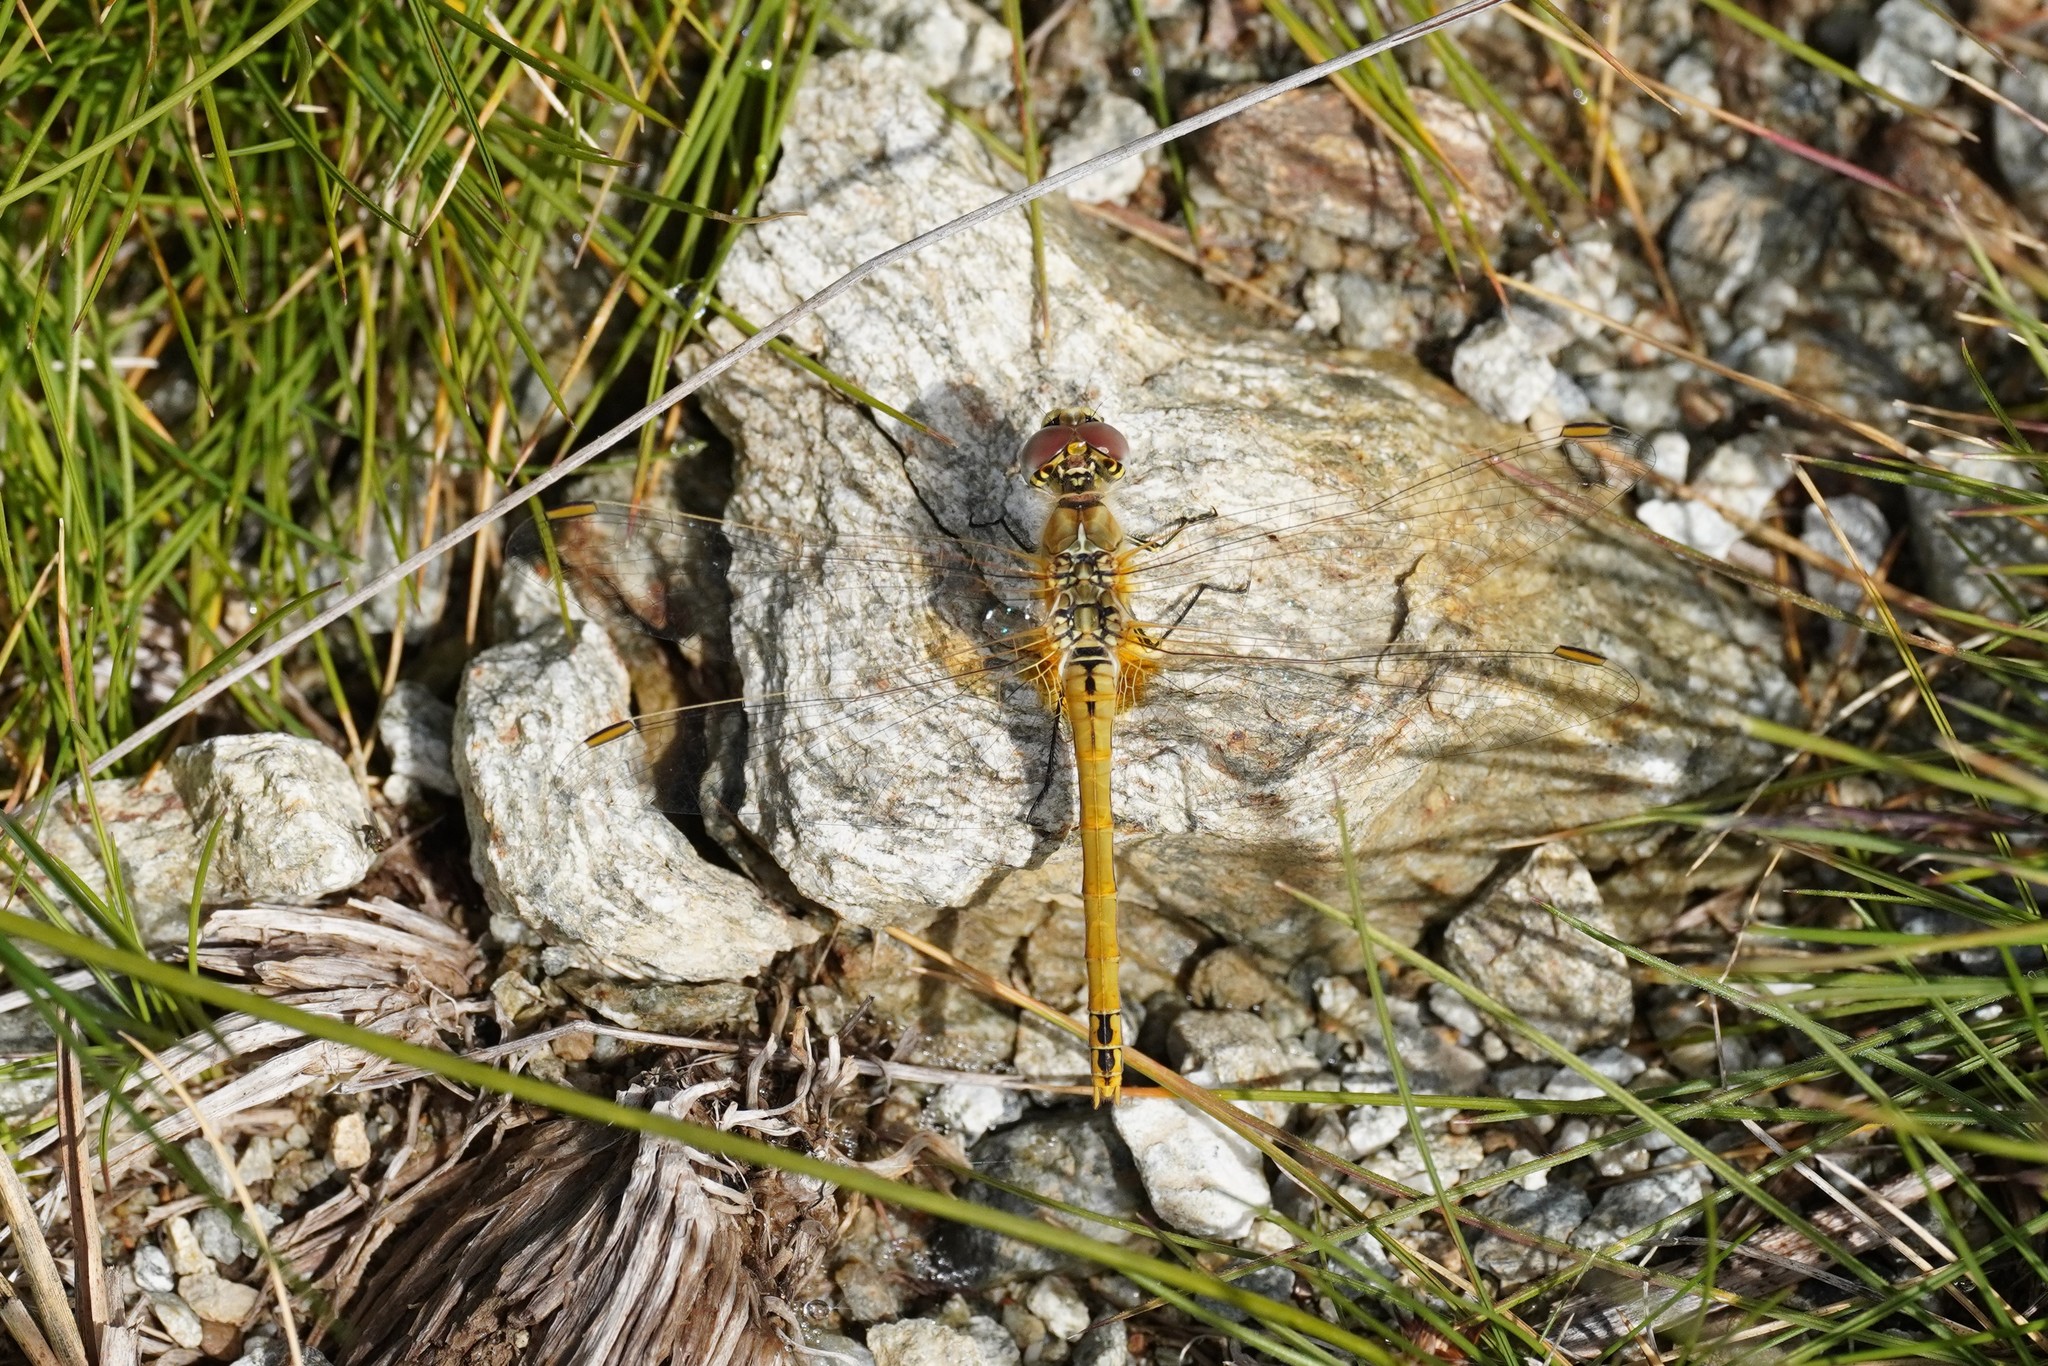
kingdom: Animalia
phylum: Arthropoda
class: Insecta
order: Odonata
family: Libellulidae
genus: Sympetrum
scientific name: Sympetrum fonscolombii
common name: Red-veined darter
